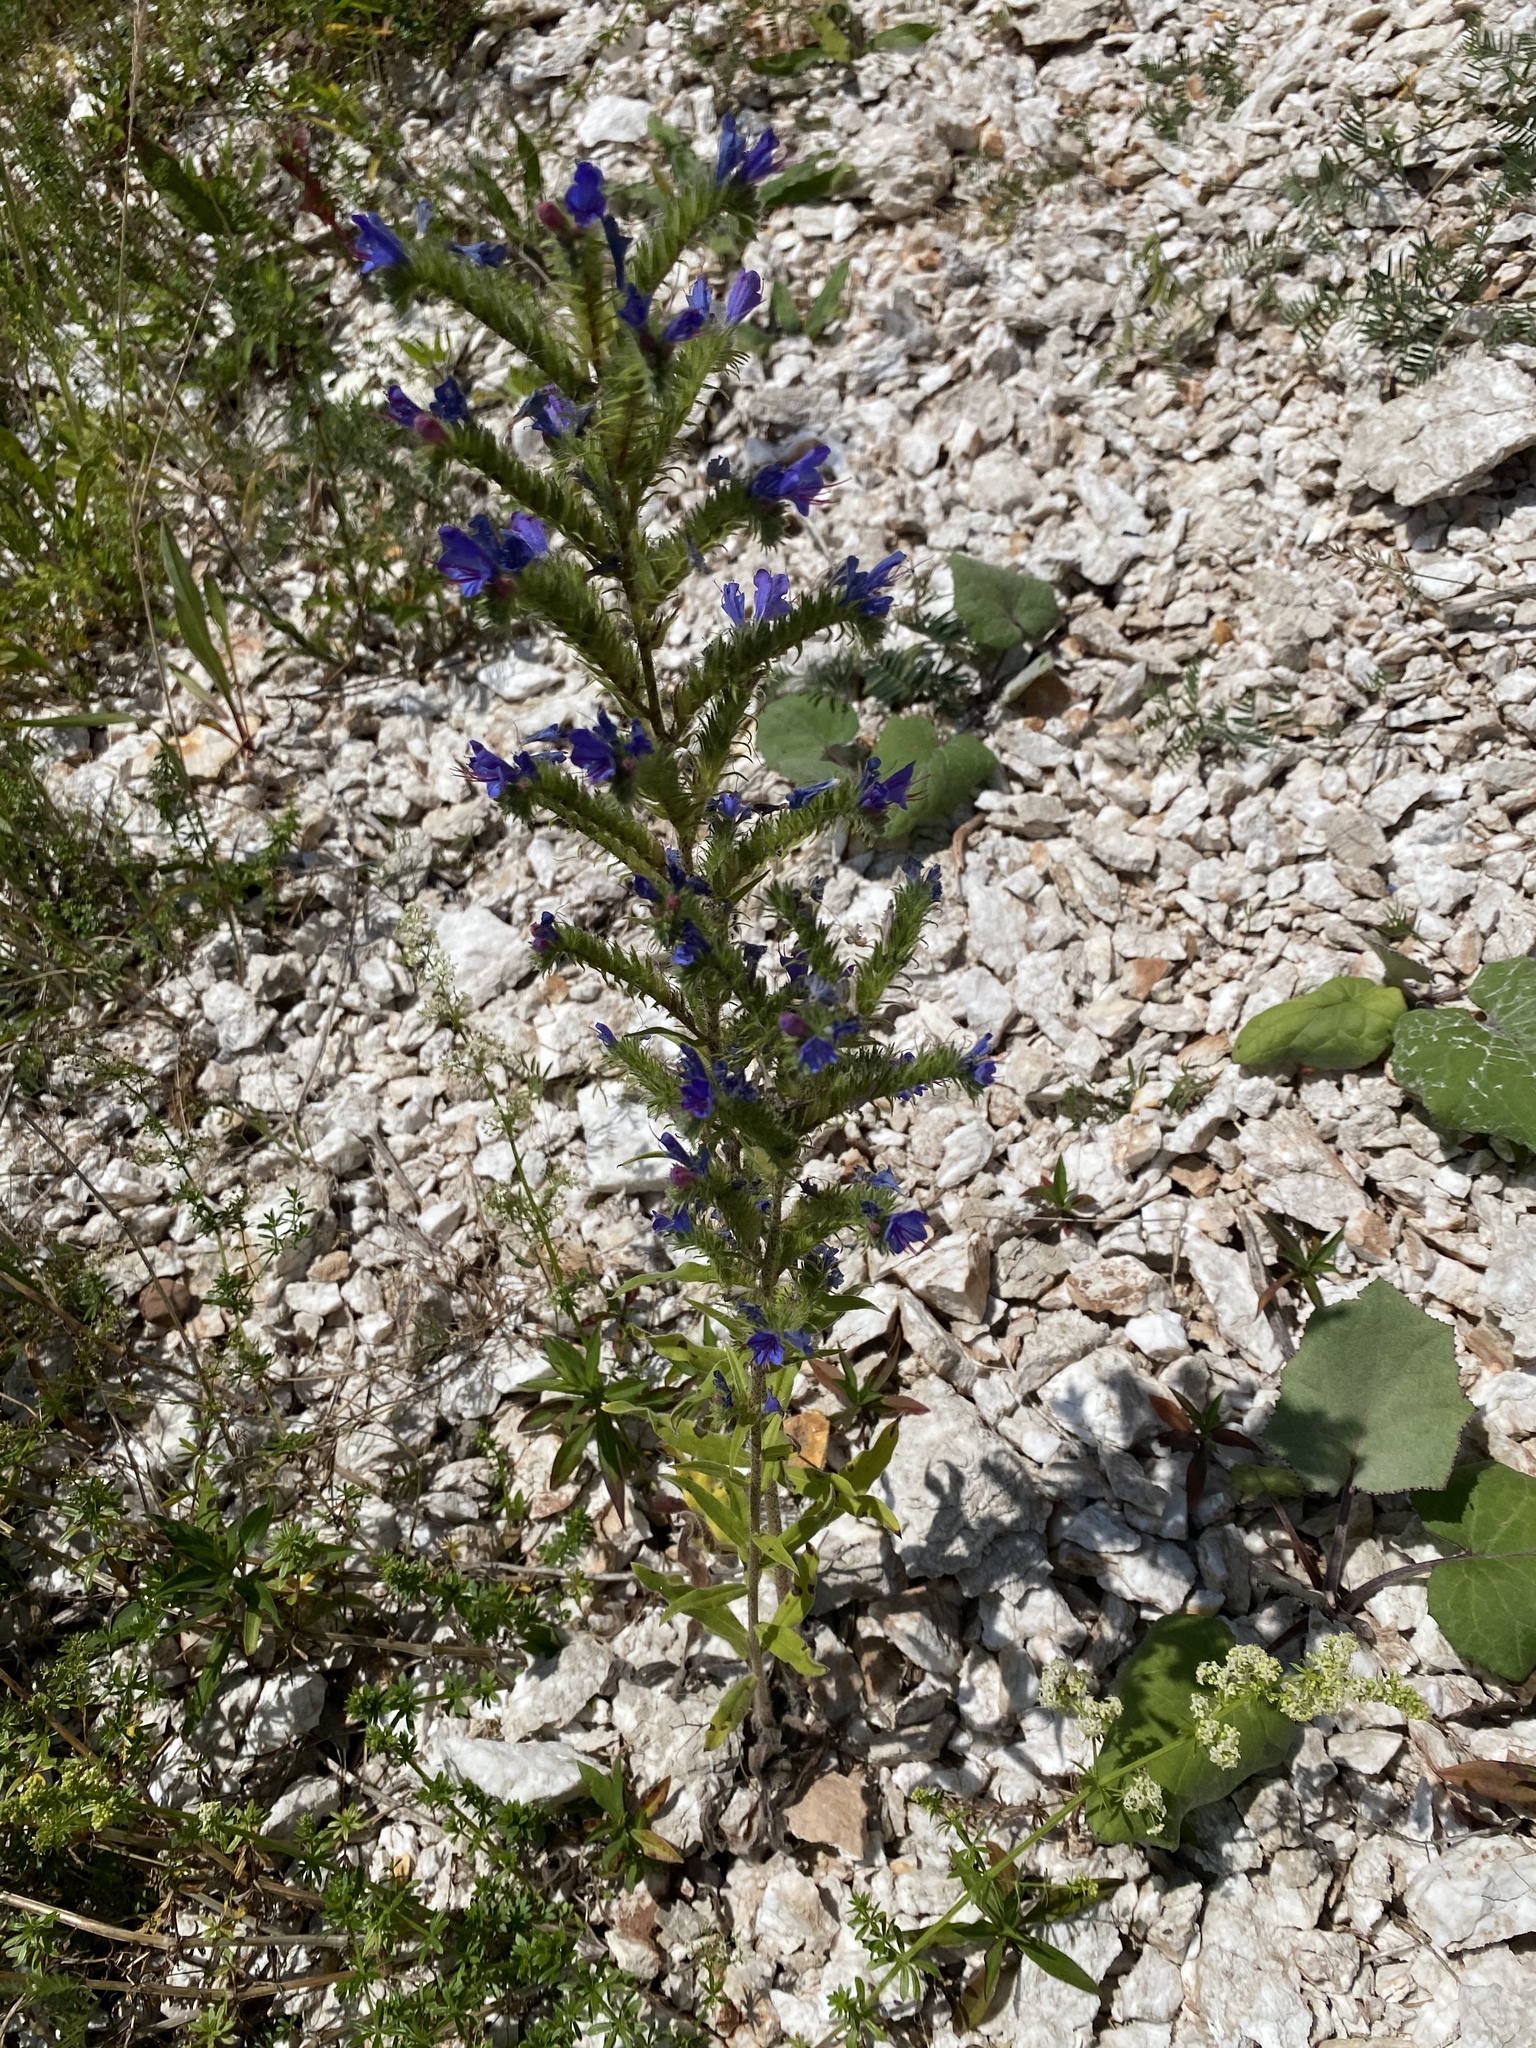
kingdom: Plantae
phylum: Tracheophyta
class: Magnoliopsida
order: Boraginales
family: Boraginaceae
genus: Echium
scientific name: Echium vulgare
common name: Common viper's bugloss
